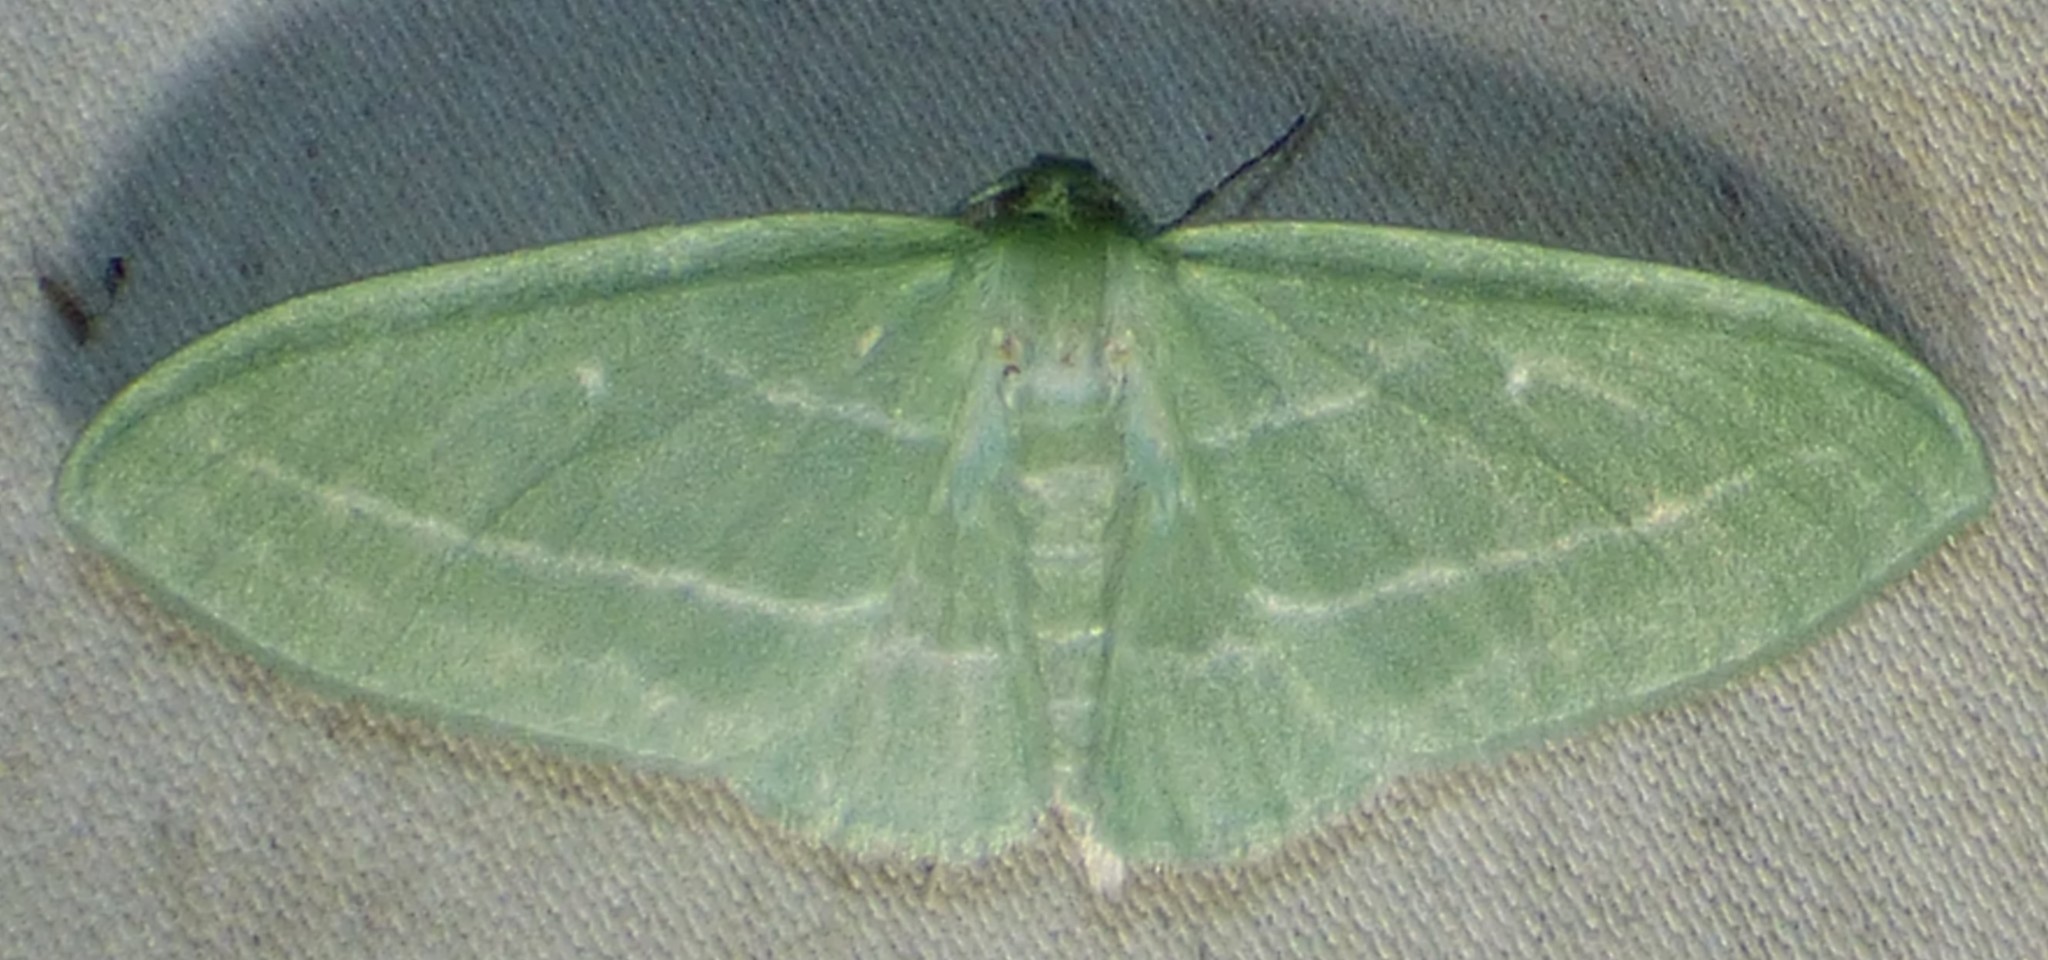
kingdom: Animalia
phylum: Arthropoda
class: Insecta
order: Lepidoptera
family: Geometridae
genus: Dyspteris
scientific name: Dyspteris abortivaria
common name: Bad-wing
